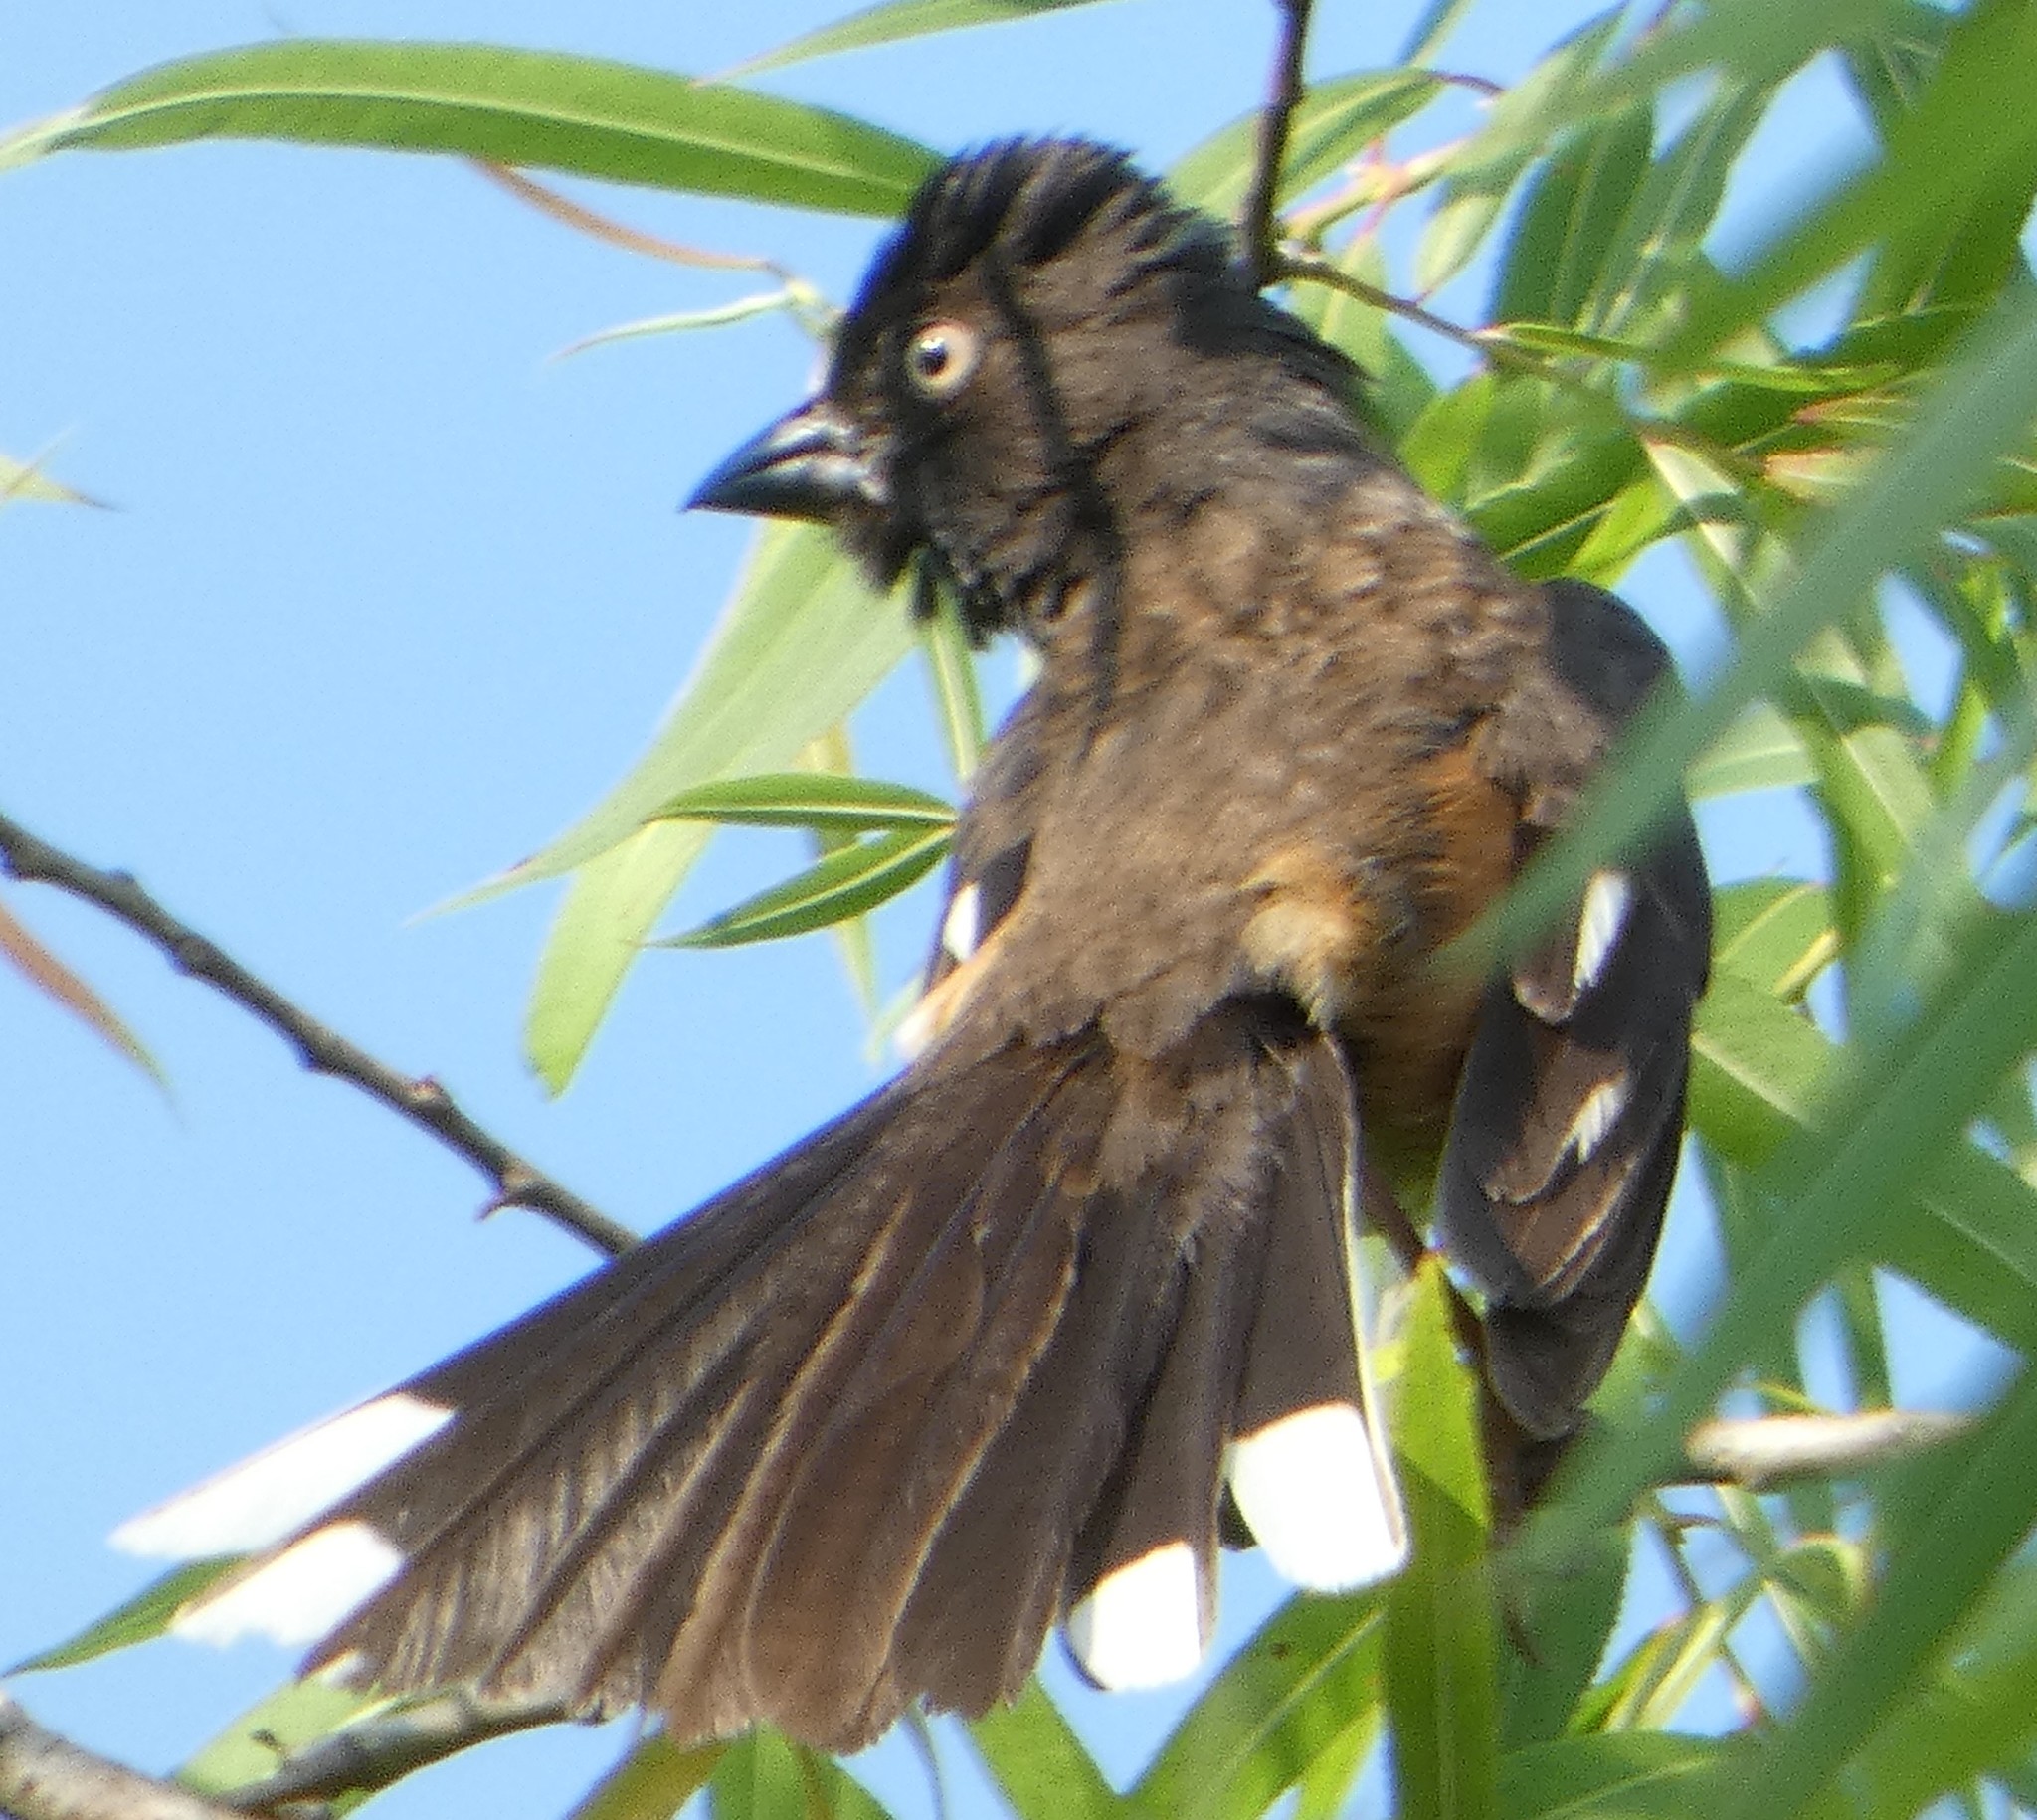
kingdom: Animalia
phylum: Chordata
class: Aves
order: Passeriformes
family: Passerellidae
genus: Pipilo
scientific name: Pipilo erythrophthalmus
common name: Eastern towhee
